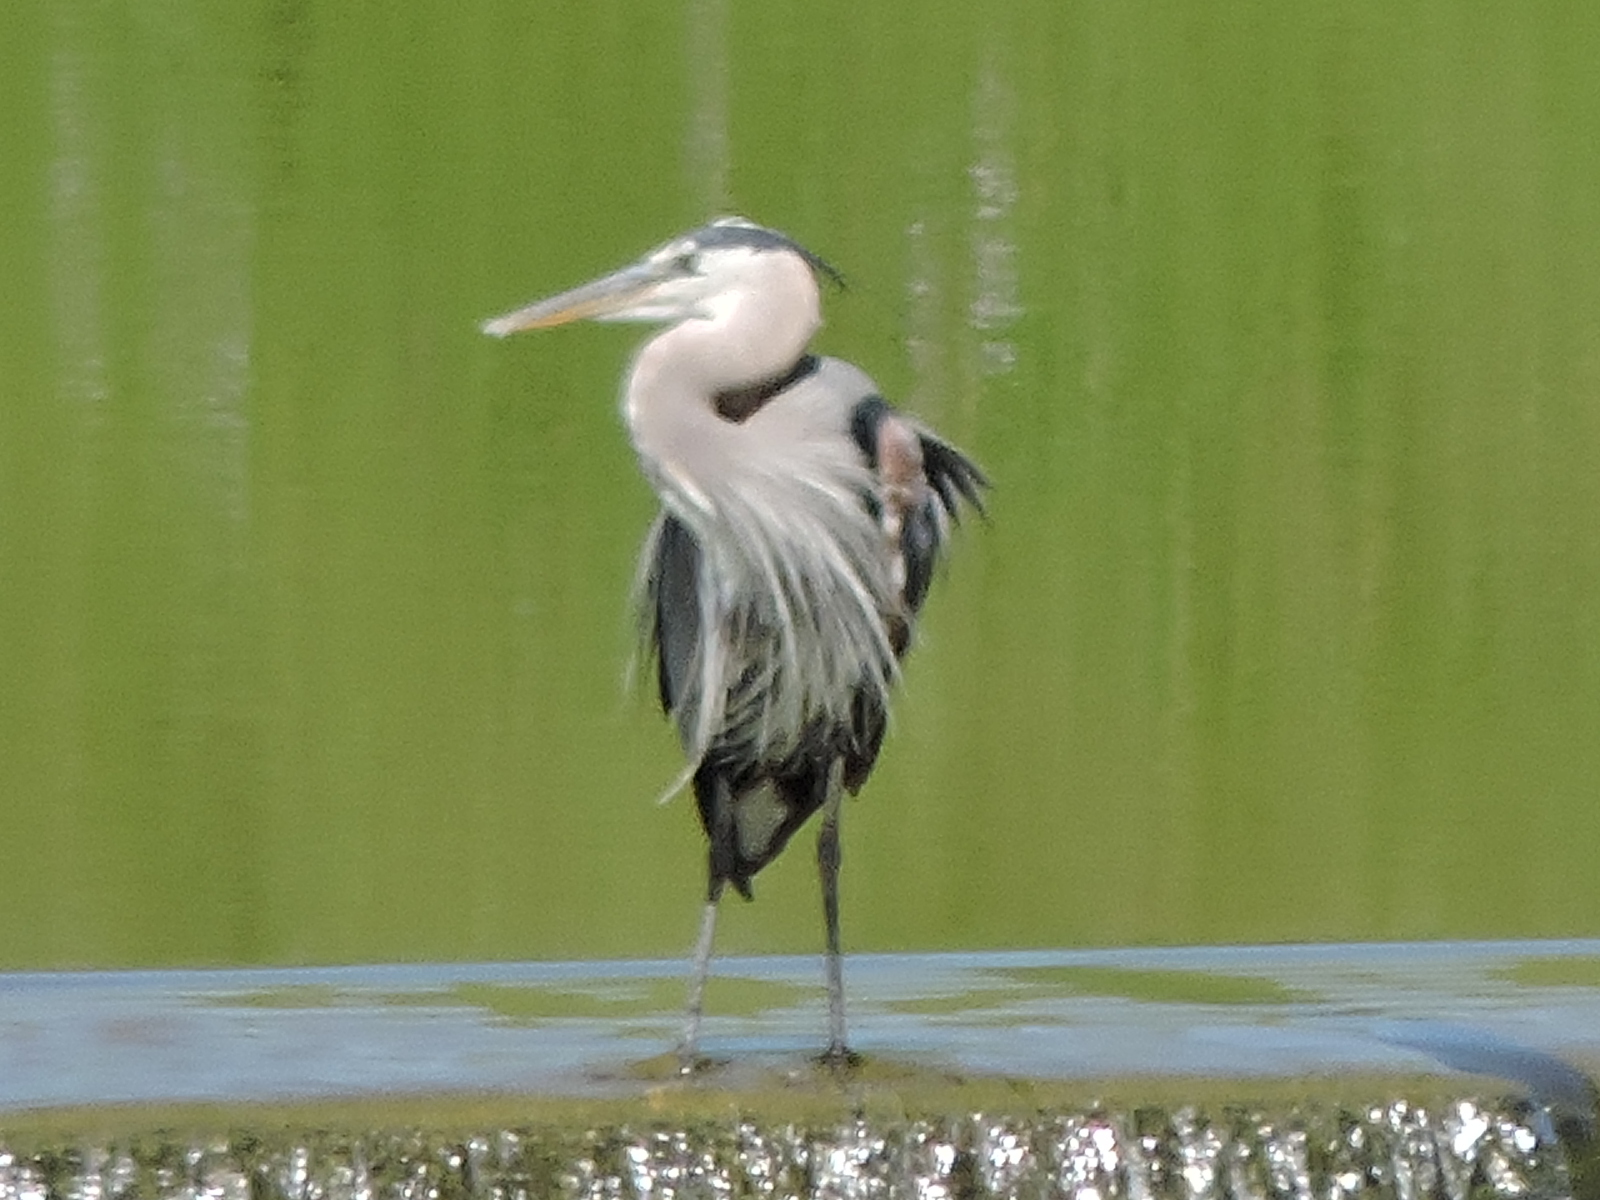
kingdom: Animalia
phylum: Chordata
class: Aves
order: Pelecaniformes
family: Ardeidae
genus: Ardea
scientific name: Ardea herodias
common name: Great blue heron
